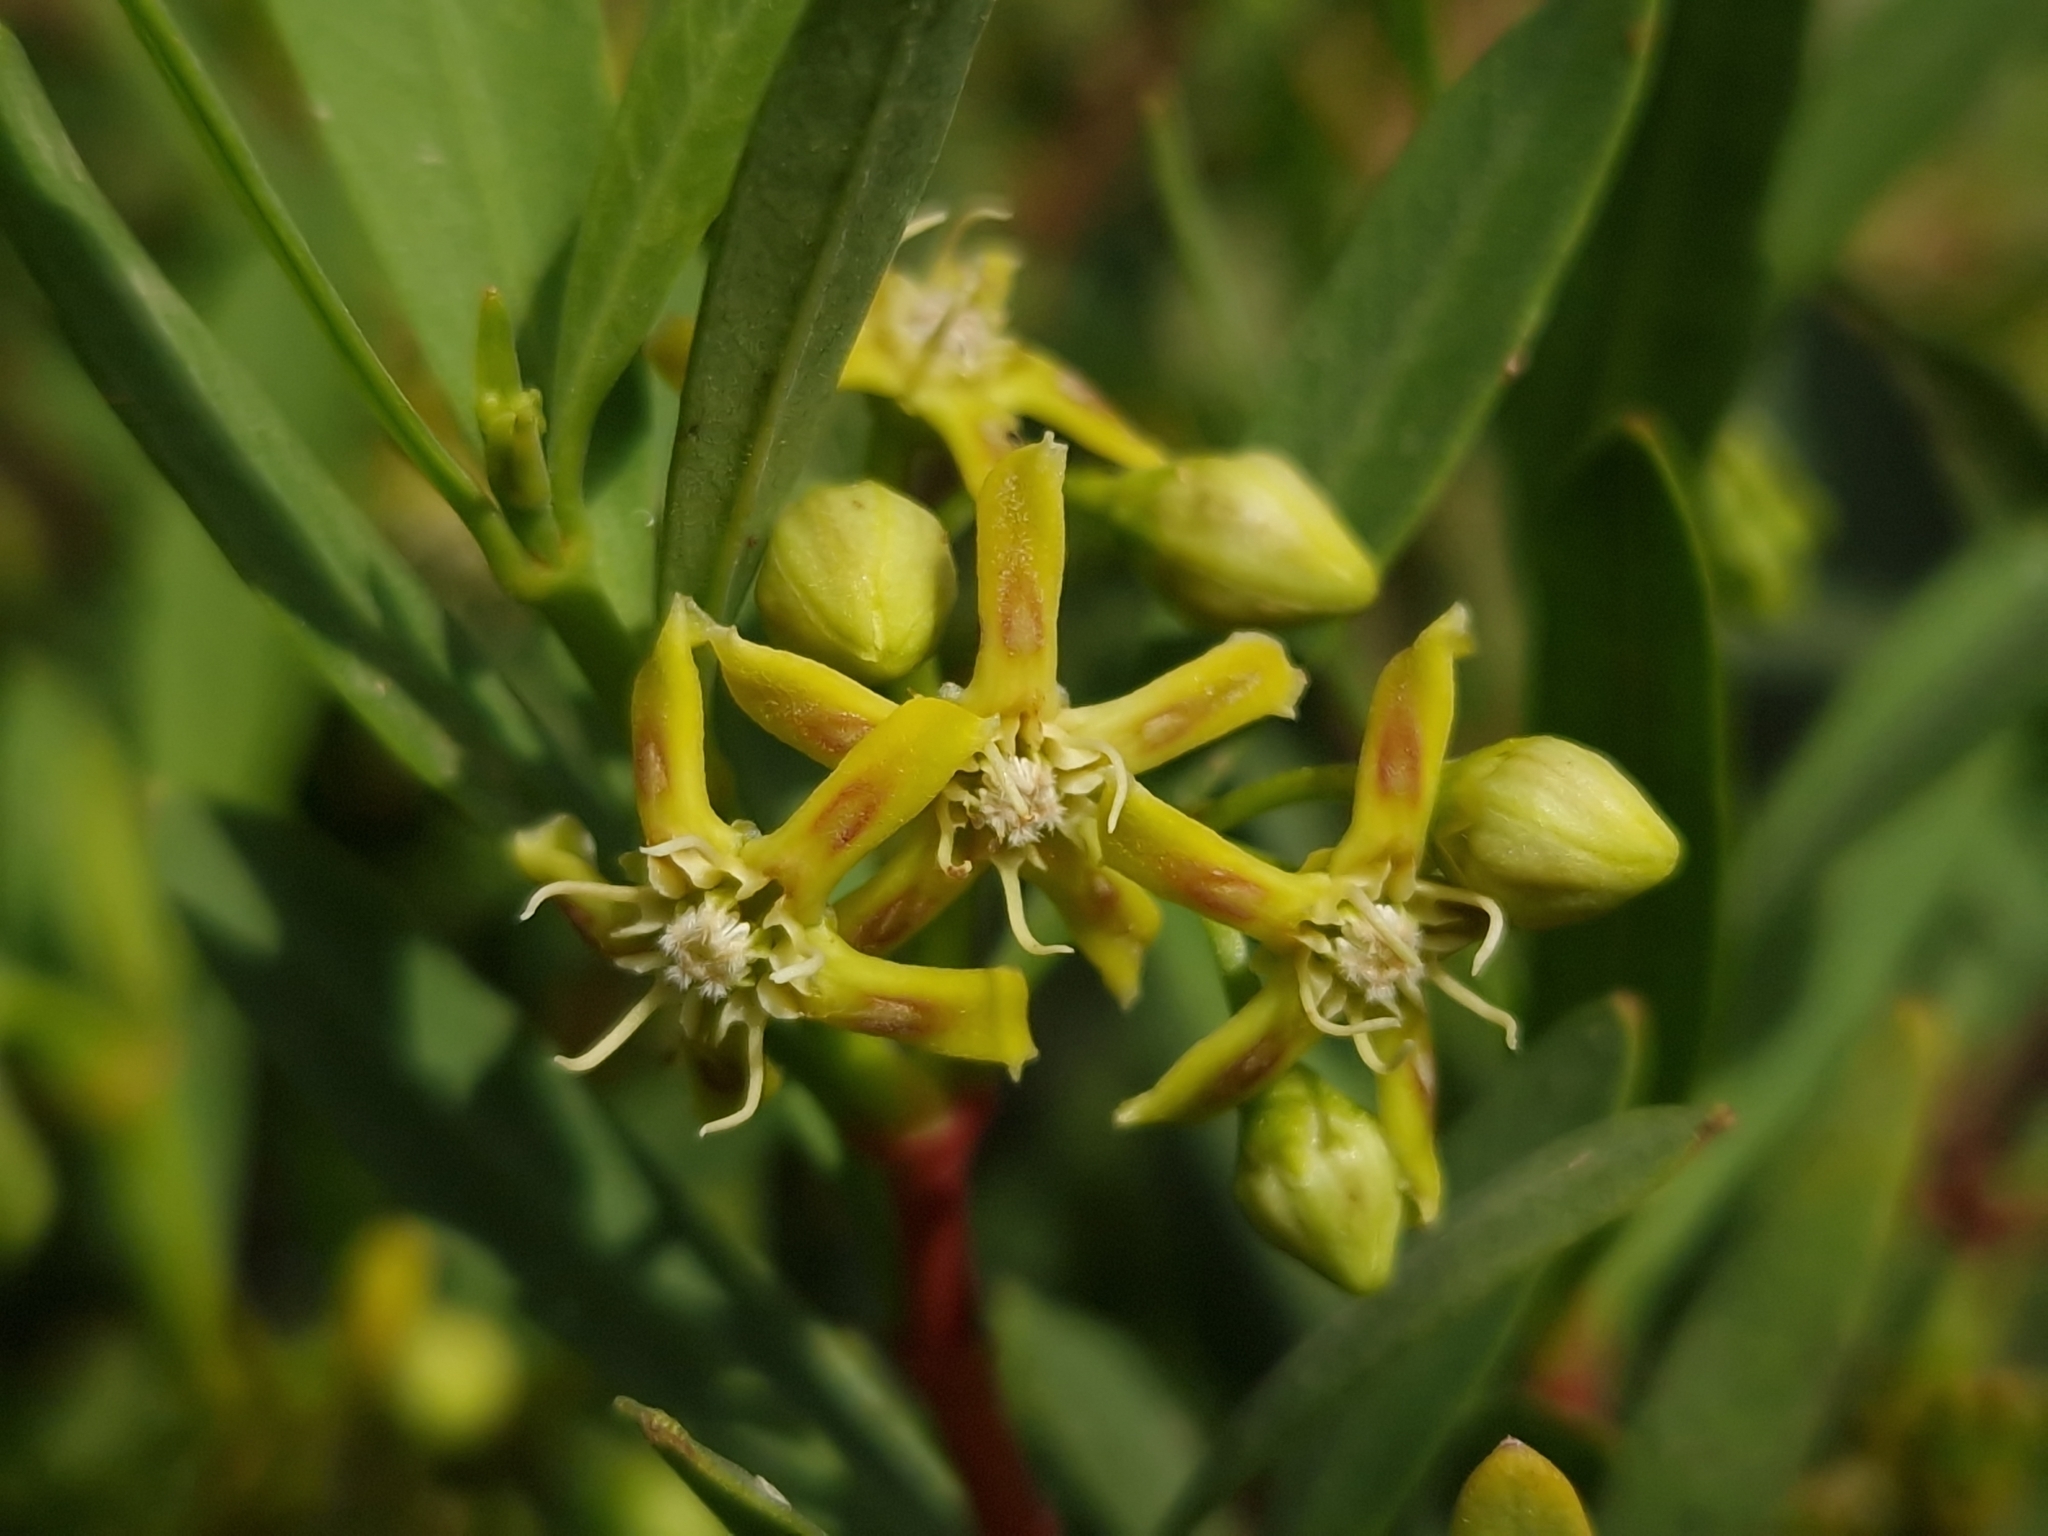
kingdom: Plantae
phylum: Tracheophyta
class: Magnoliopsida
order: Gentianales
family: Apocynaceae
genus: Periploca
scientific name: Periploca laevigata
